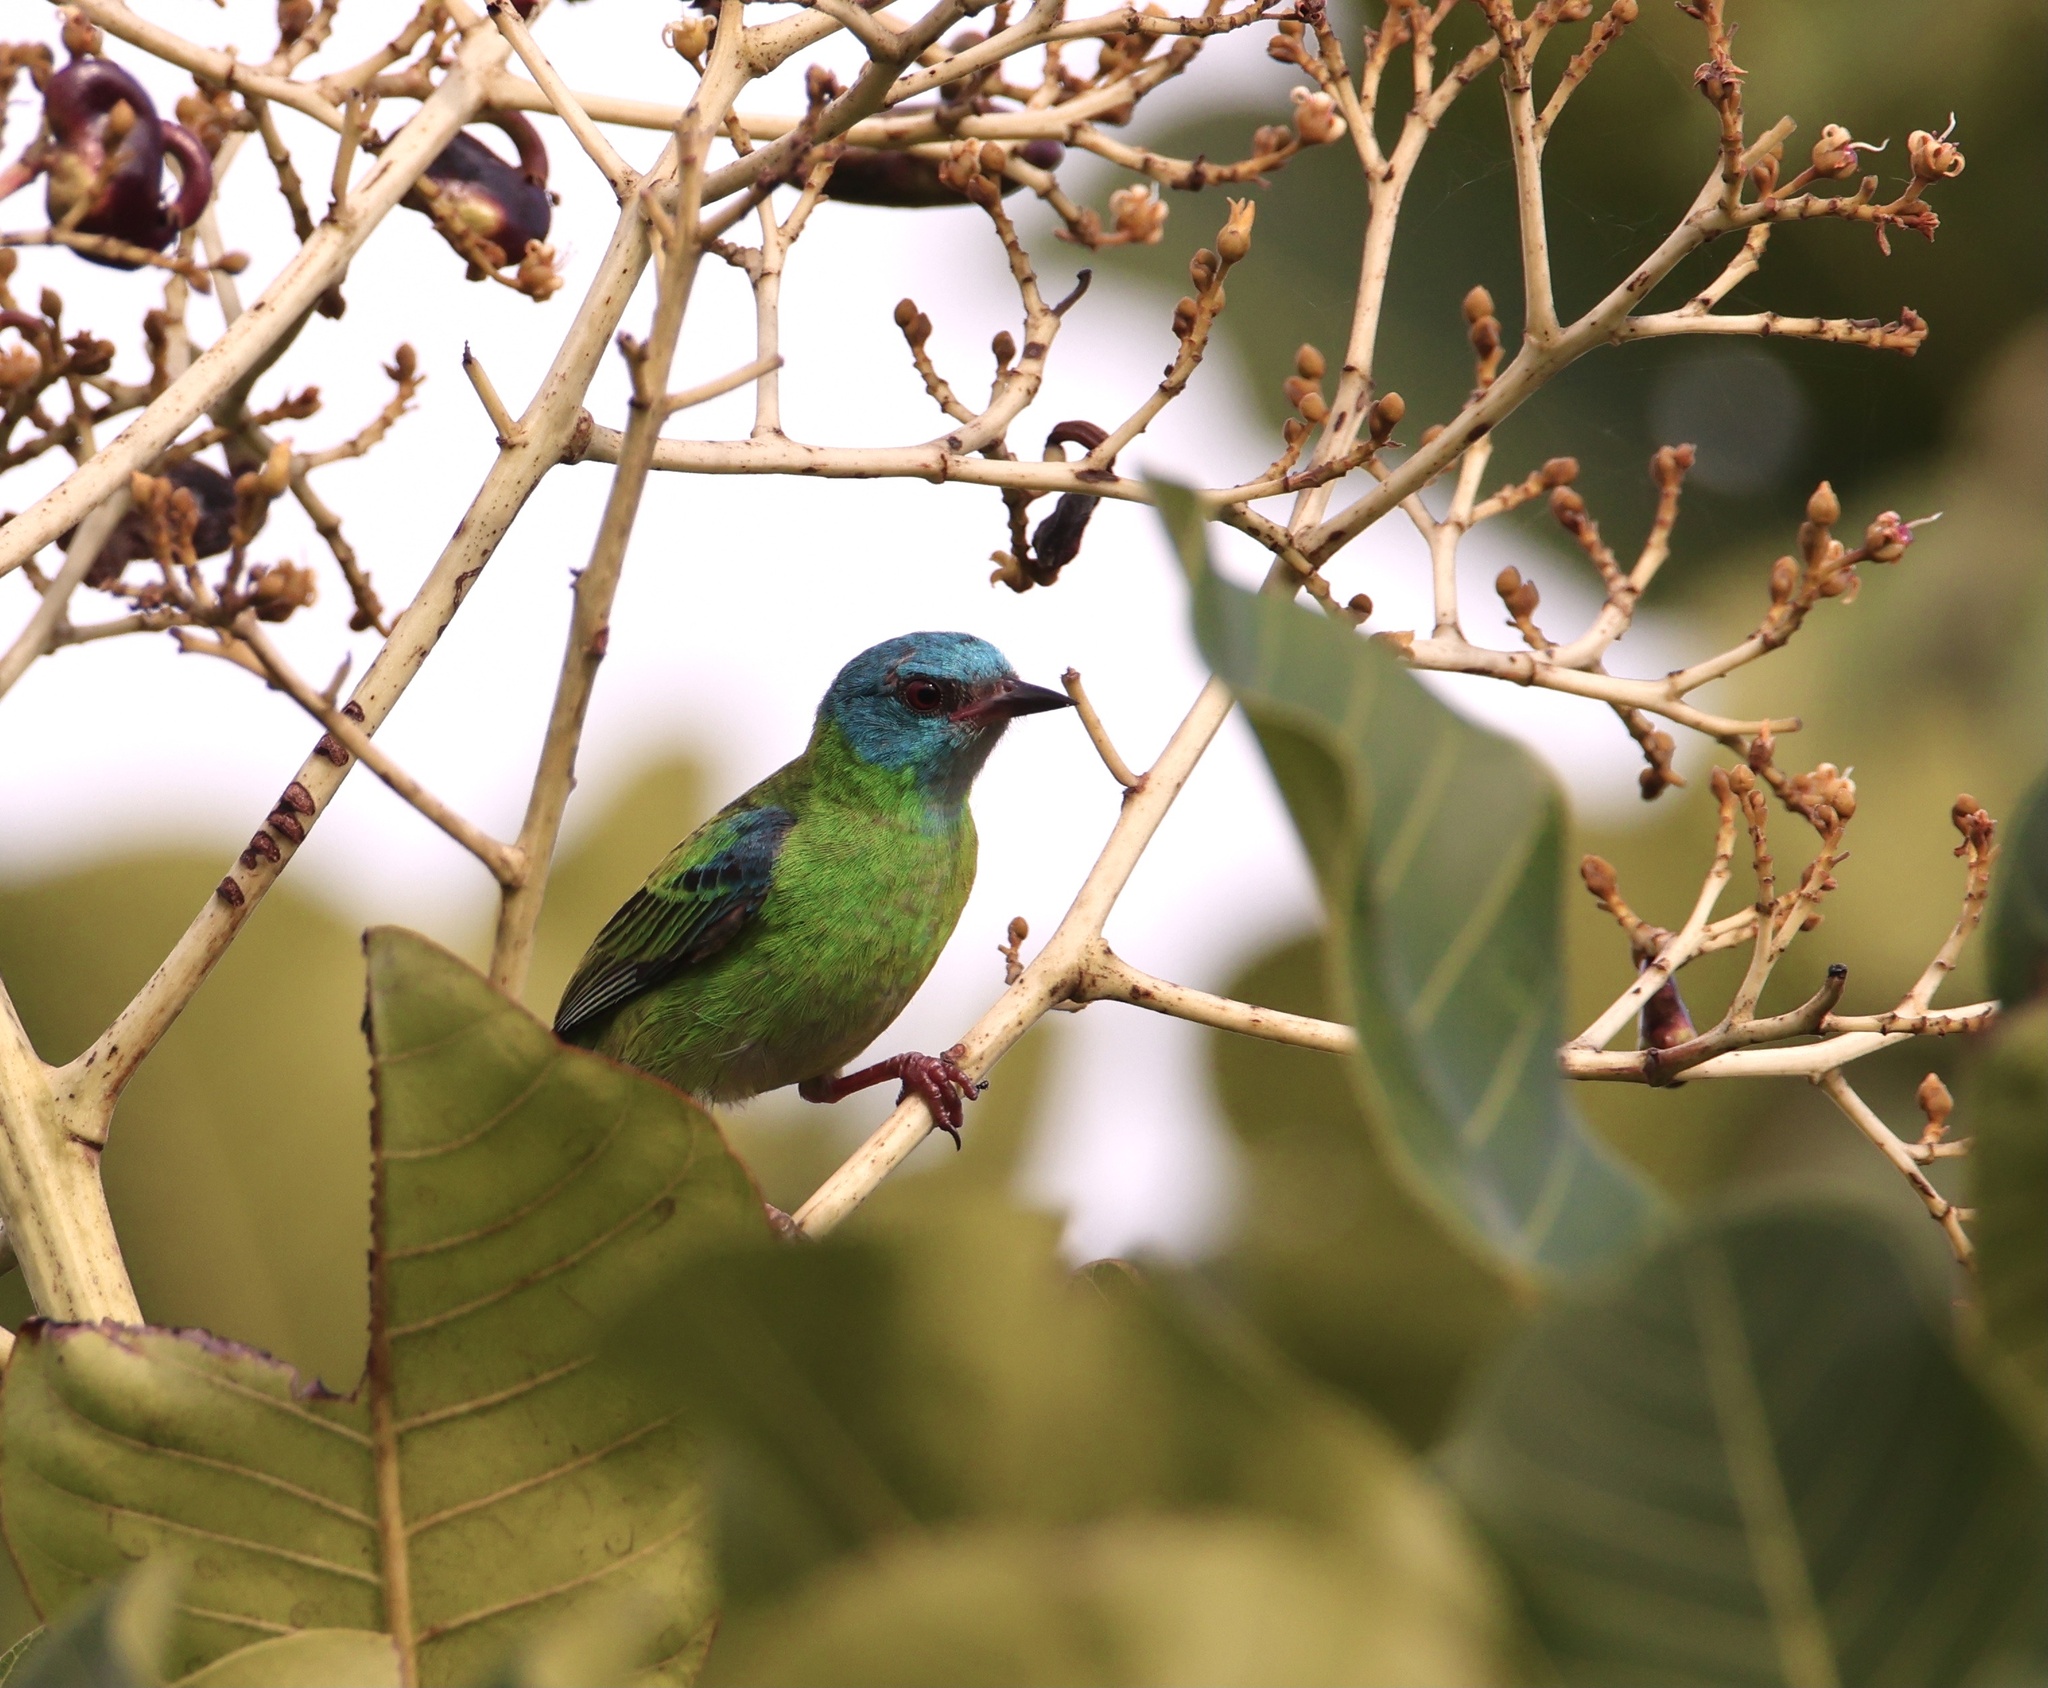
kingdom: Animalia
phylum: Chordata
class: Aves
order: Passeriformes
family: Thraupidae
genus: Dacnis
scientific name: Dacnis cayana
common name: Blue dacnis
